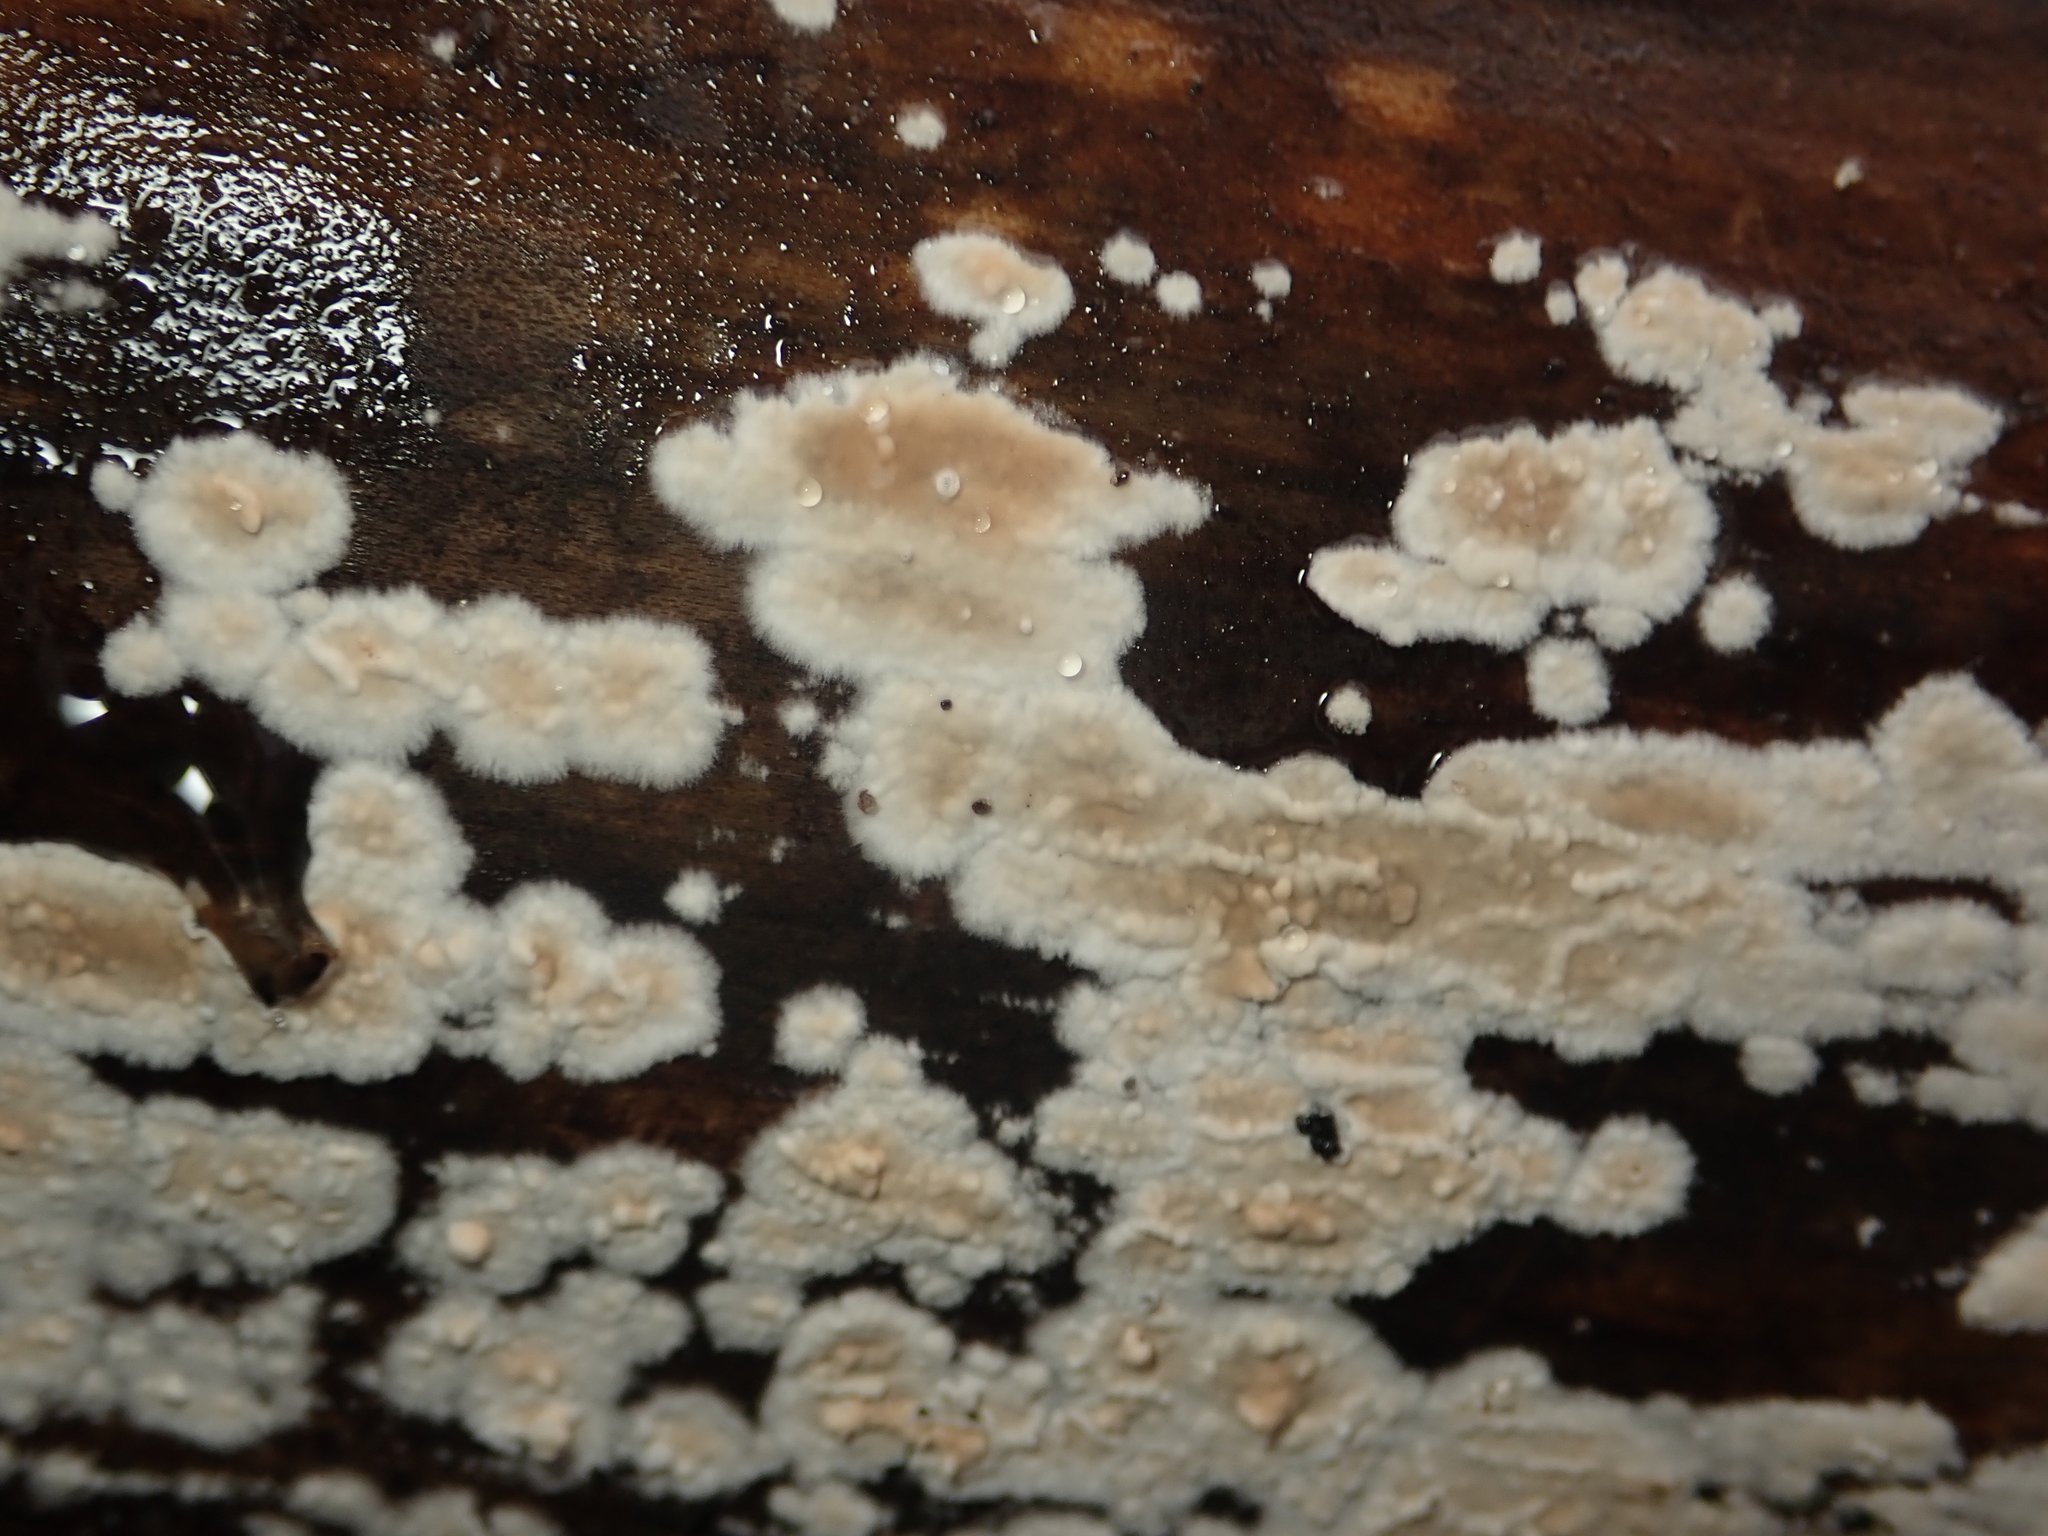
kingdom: Fungi
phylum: Basidiomycota
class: Agaricomycetes
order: Agaricales
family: Physalacriaceae
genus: Cylindrobasidium
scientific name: Cylindrobasidium laeve
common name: Tear dropper
